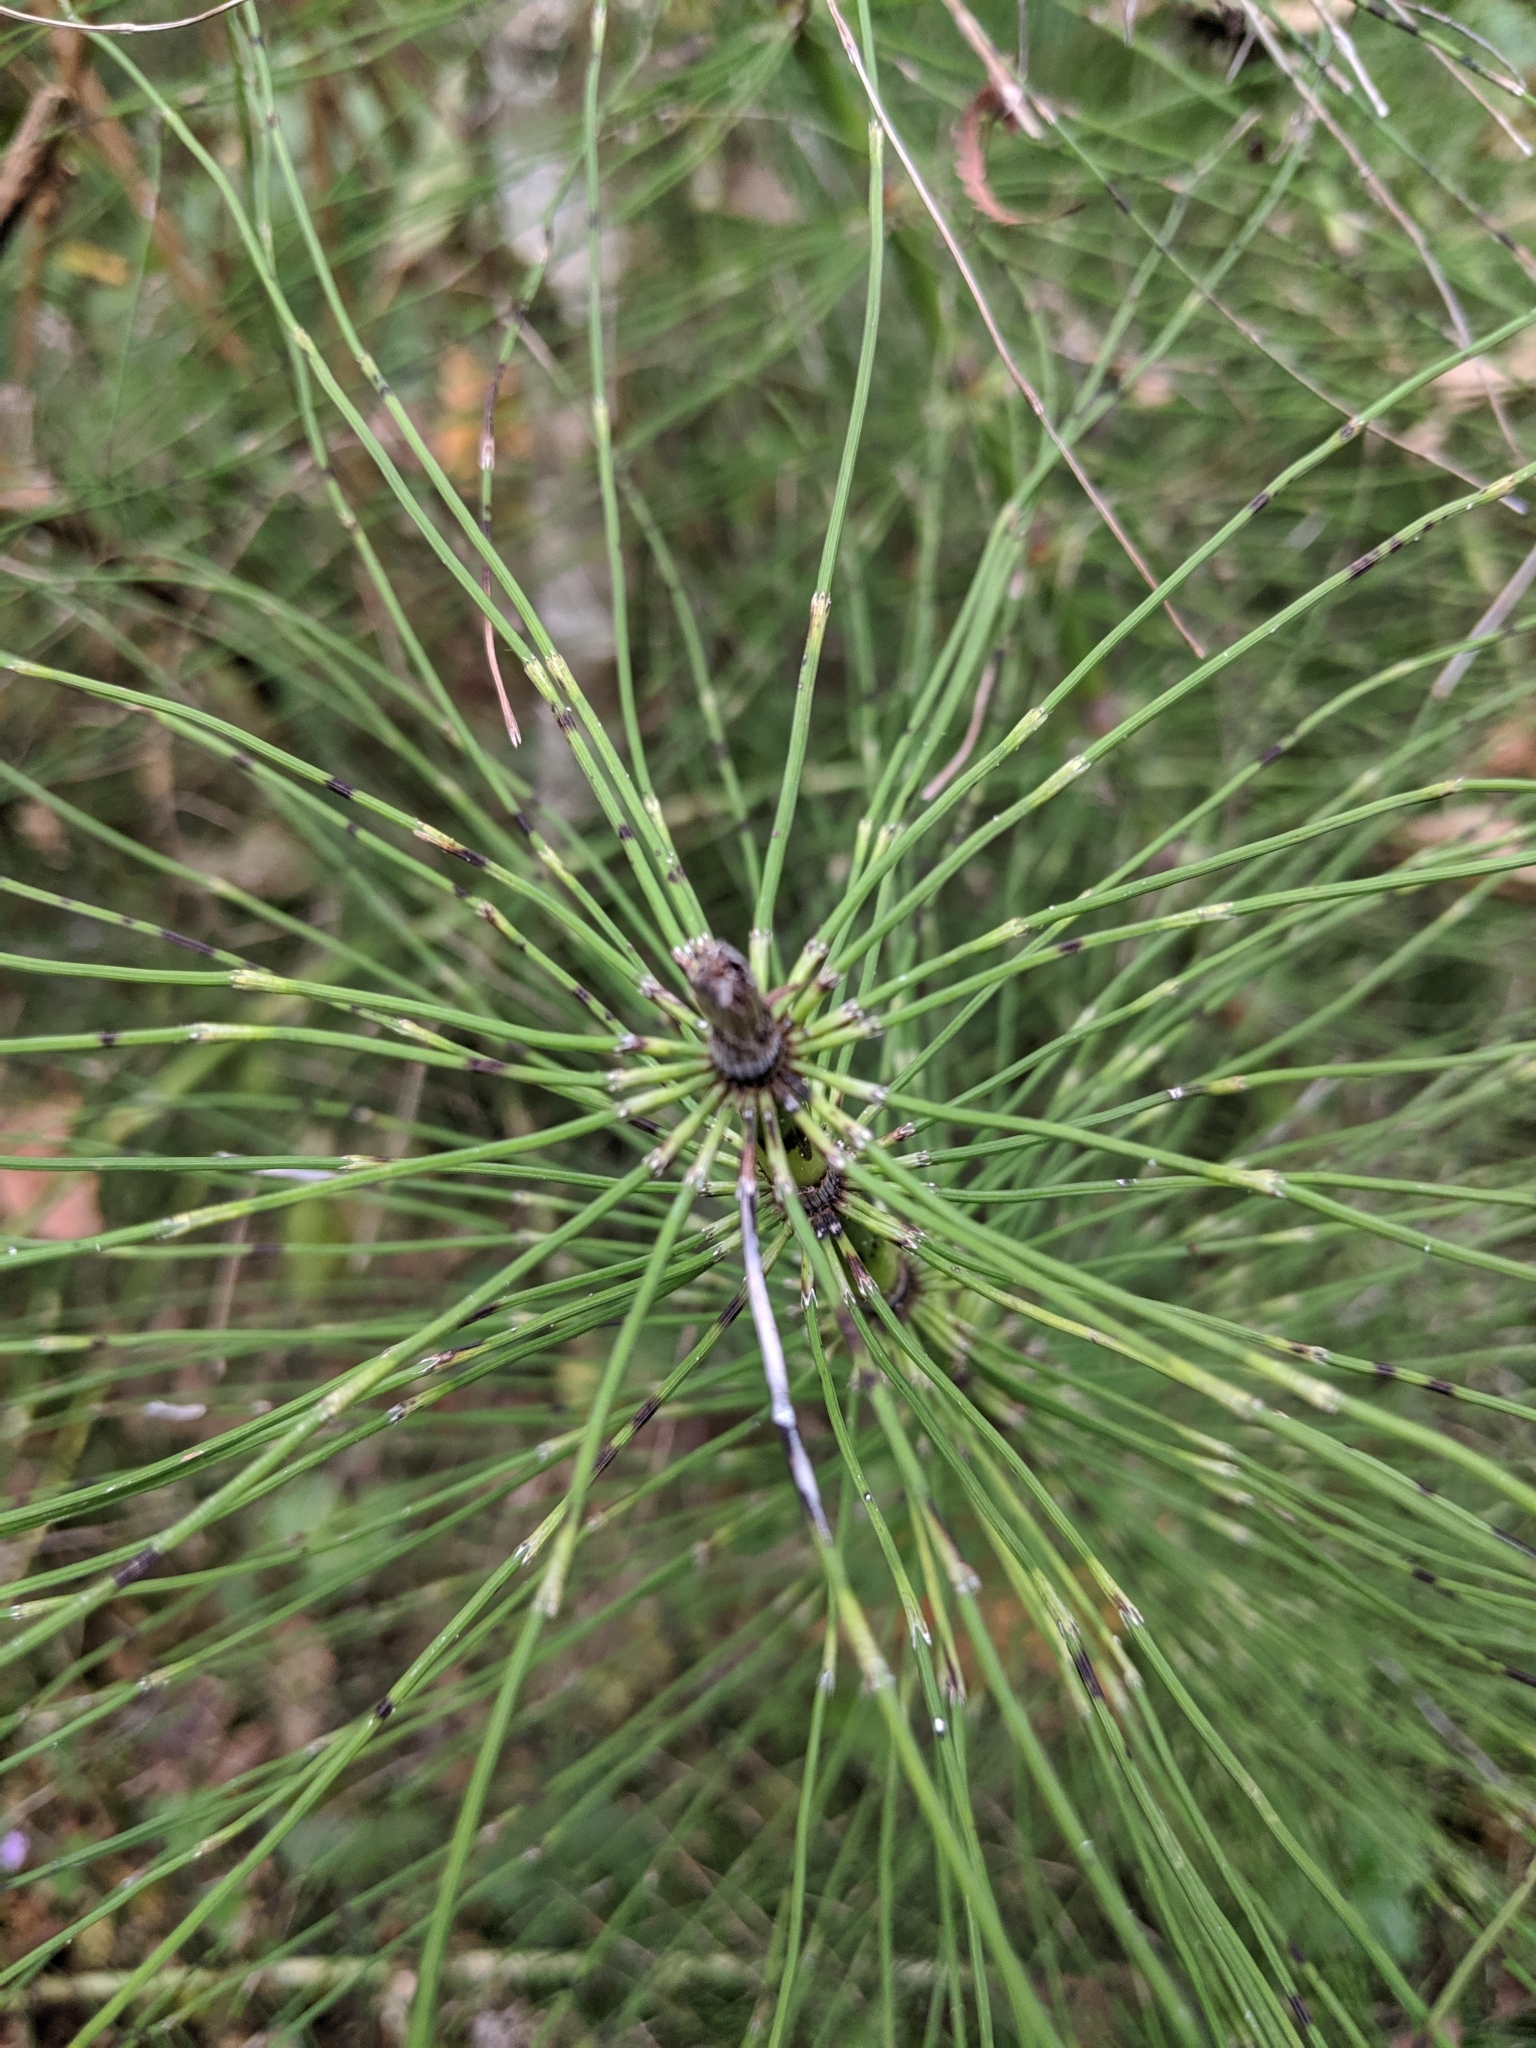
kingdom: Plantae
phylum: Tracheophyta
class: Polypodiopsida
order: Equisetales
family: Equisetaceae
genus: Equisetum
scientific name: Equisetum telmateia
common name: Great horsetail
